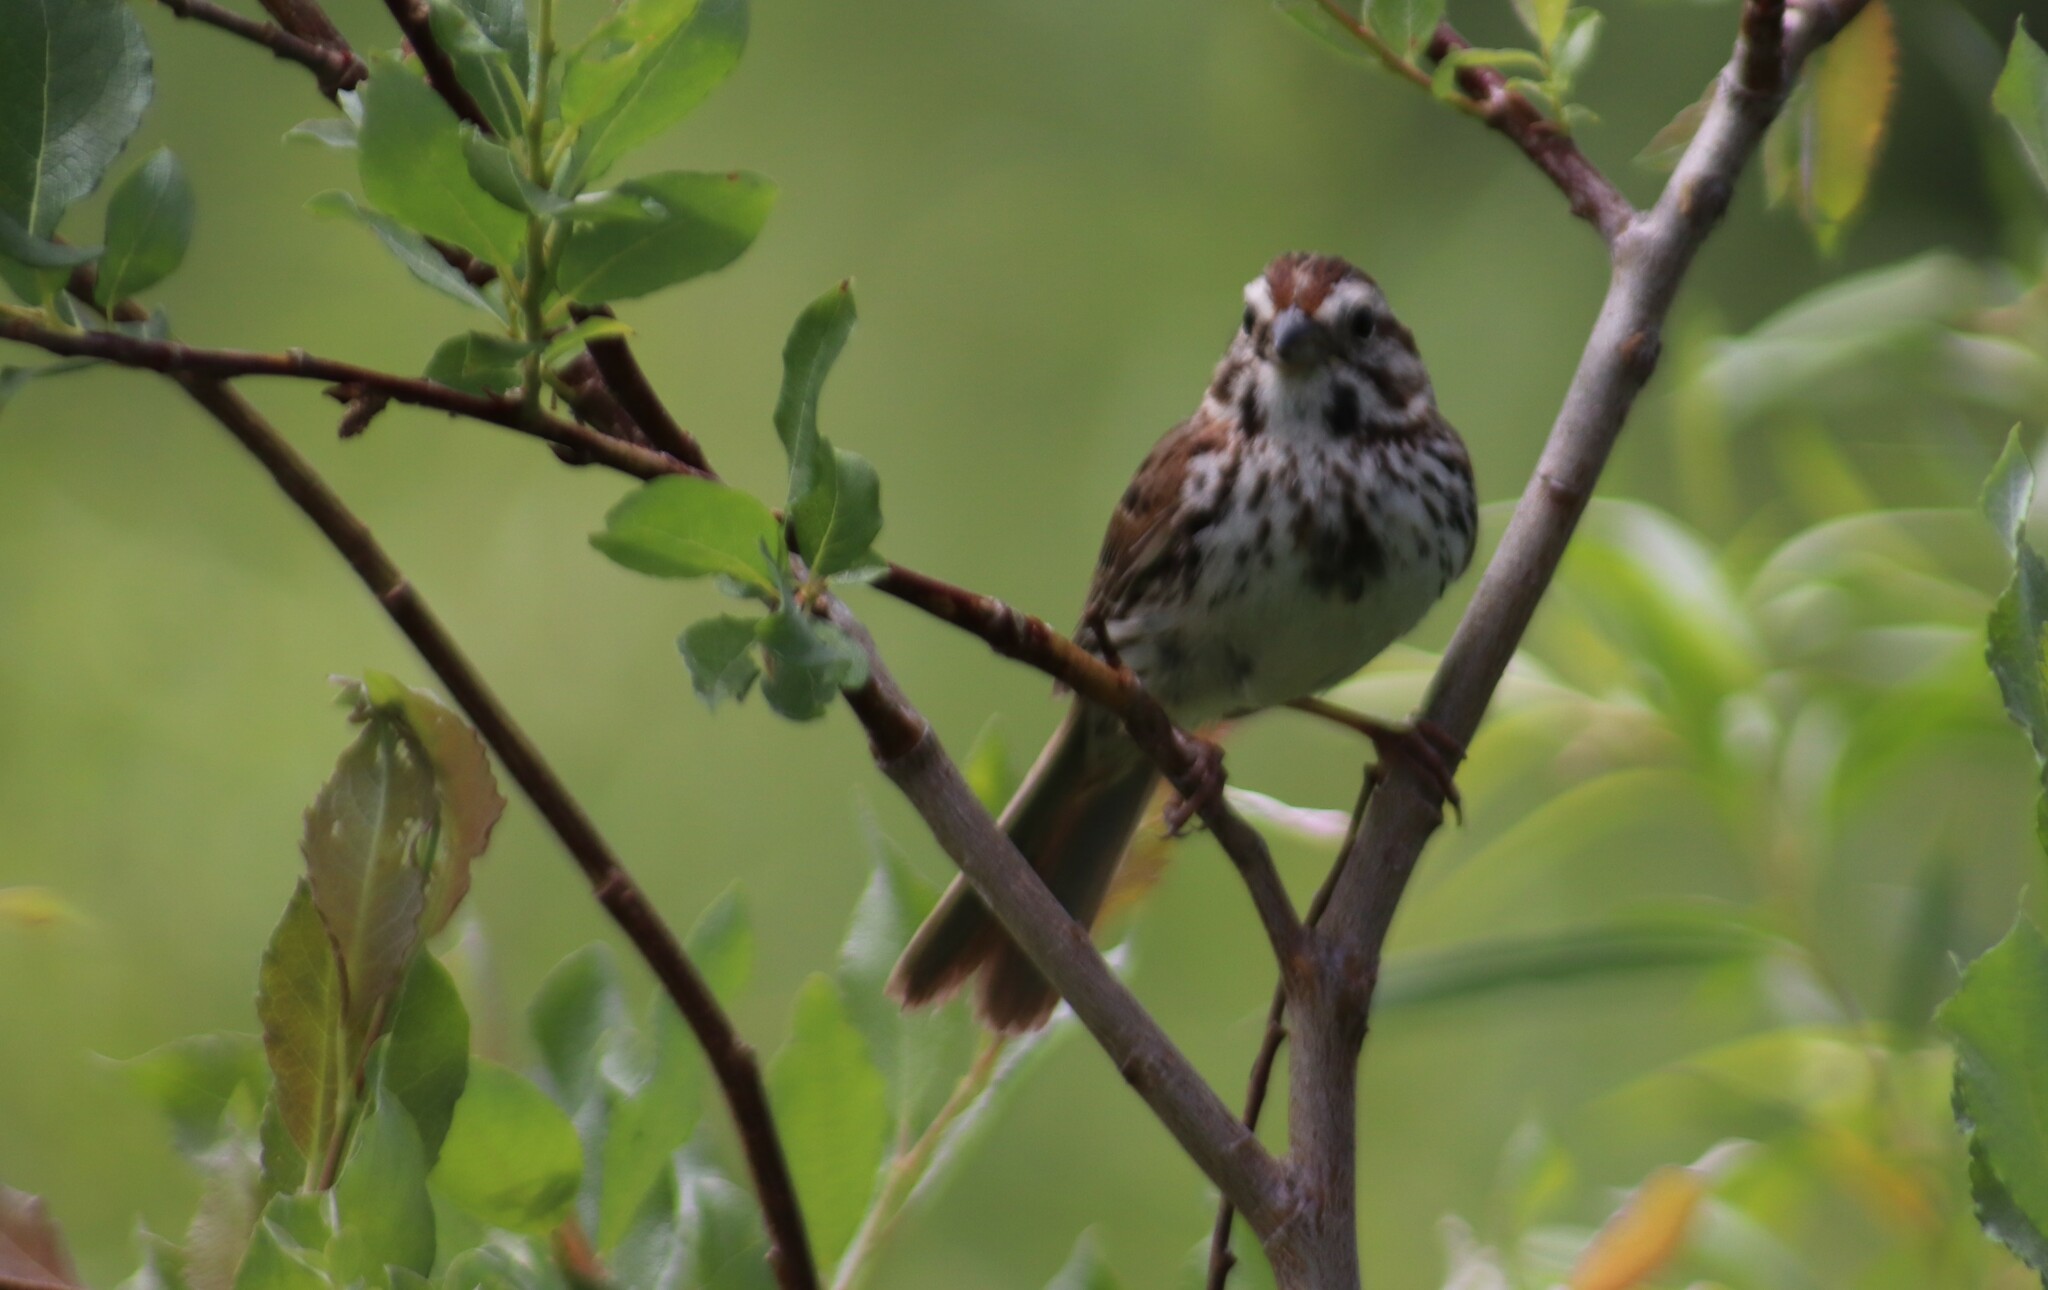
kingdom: Animalia
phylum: Chordata
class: Aves
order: Passeriformes
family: Passerellidae
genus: Melospiza
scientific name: Melospiza melodia
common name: Song sparrow
